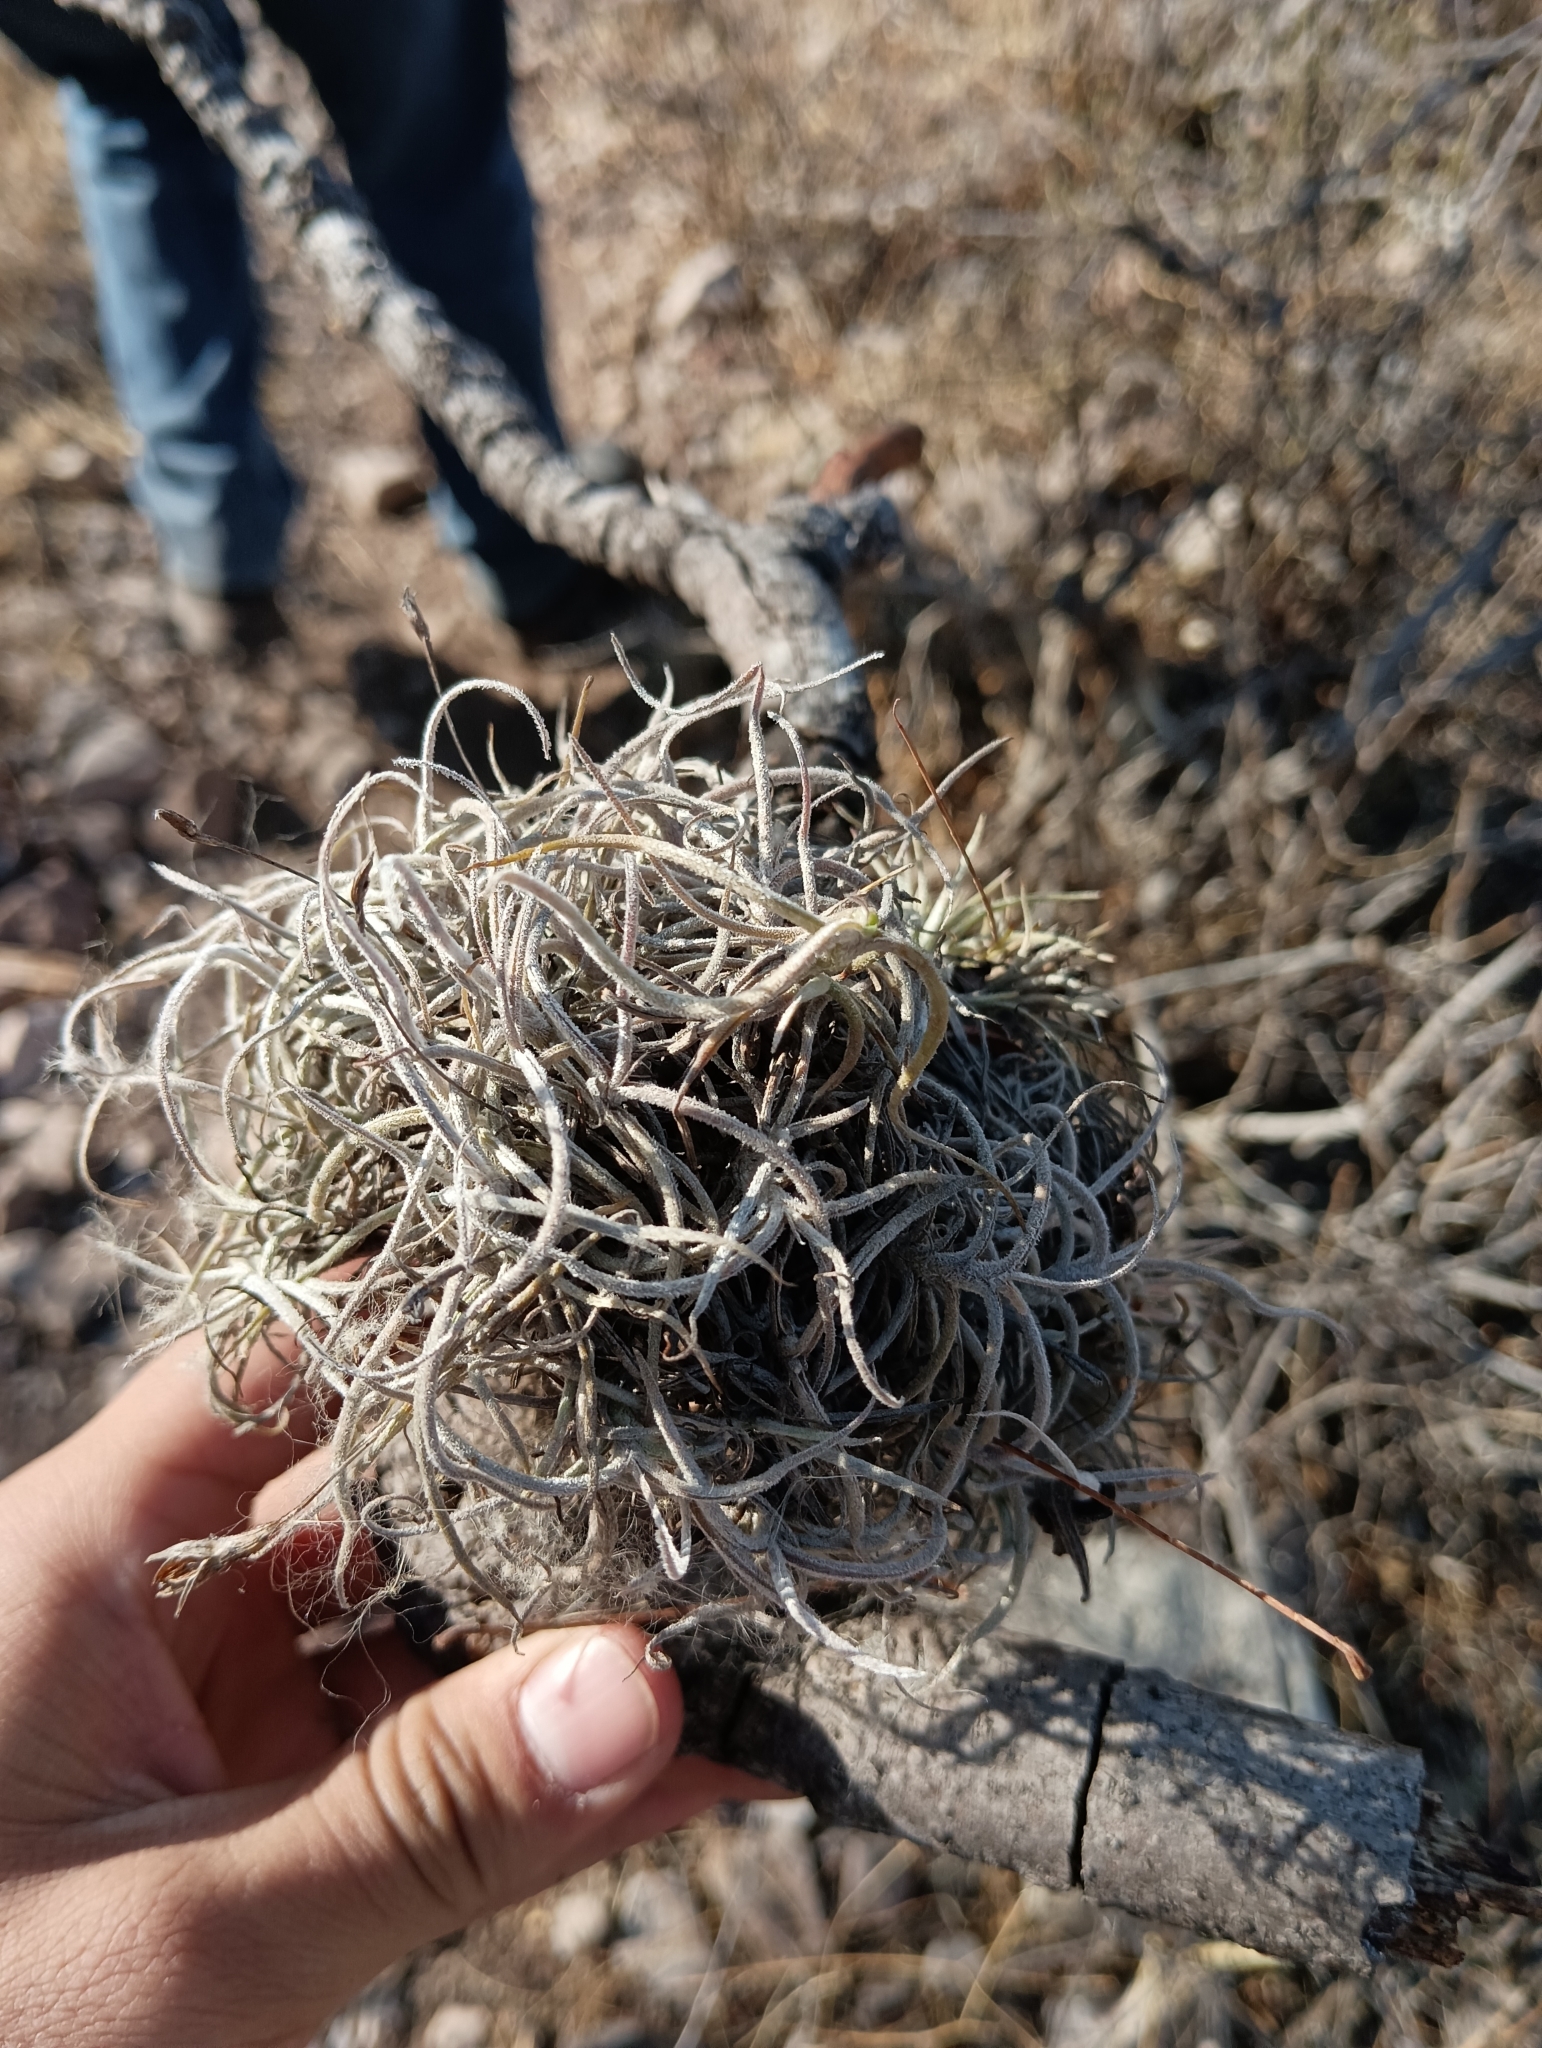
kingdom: Plantae
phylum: Tracheophyta
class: Liliopsida
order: Poales
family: Bromeliaceae
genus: Tillandsia
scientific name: Tillandsia recurvata
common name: Small ballmoss
